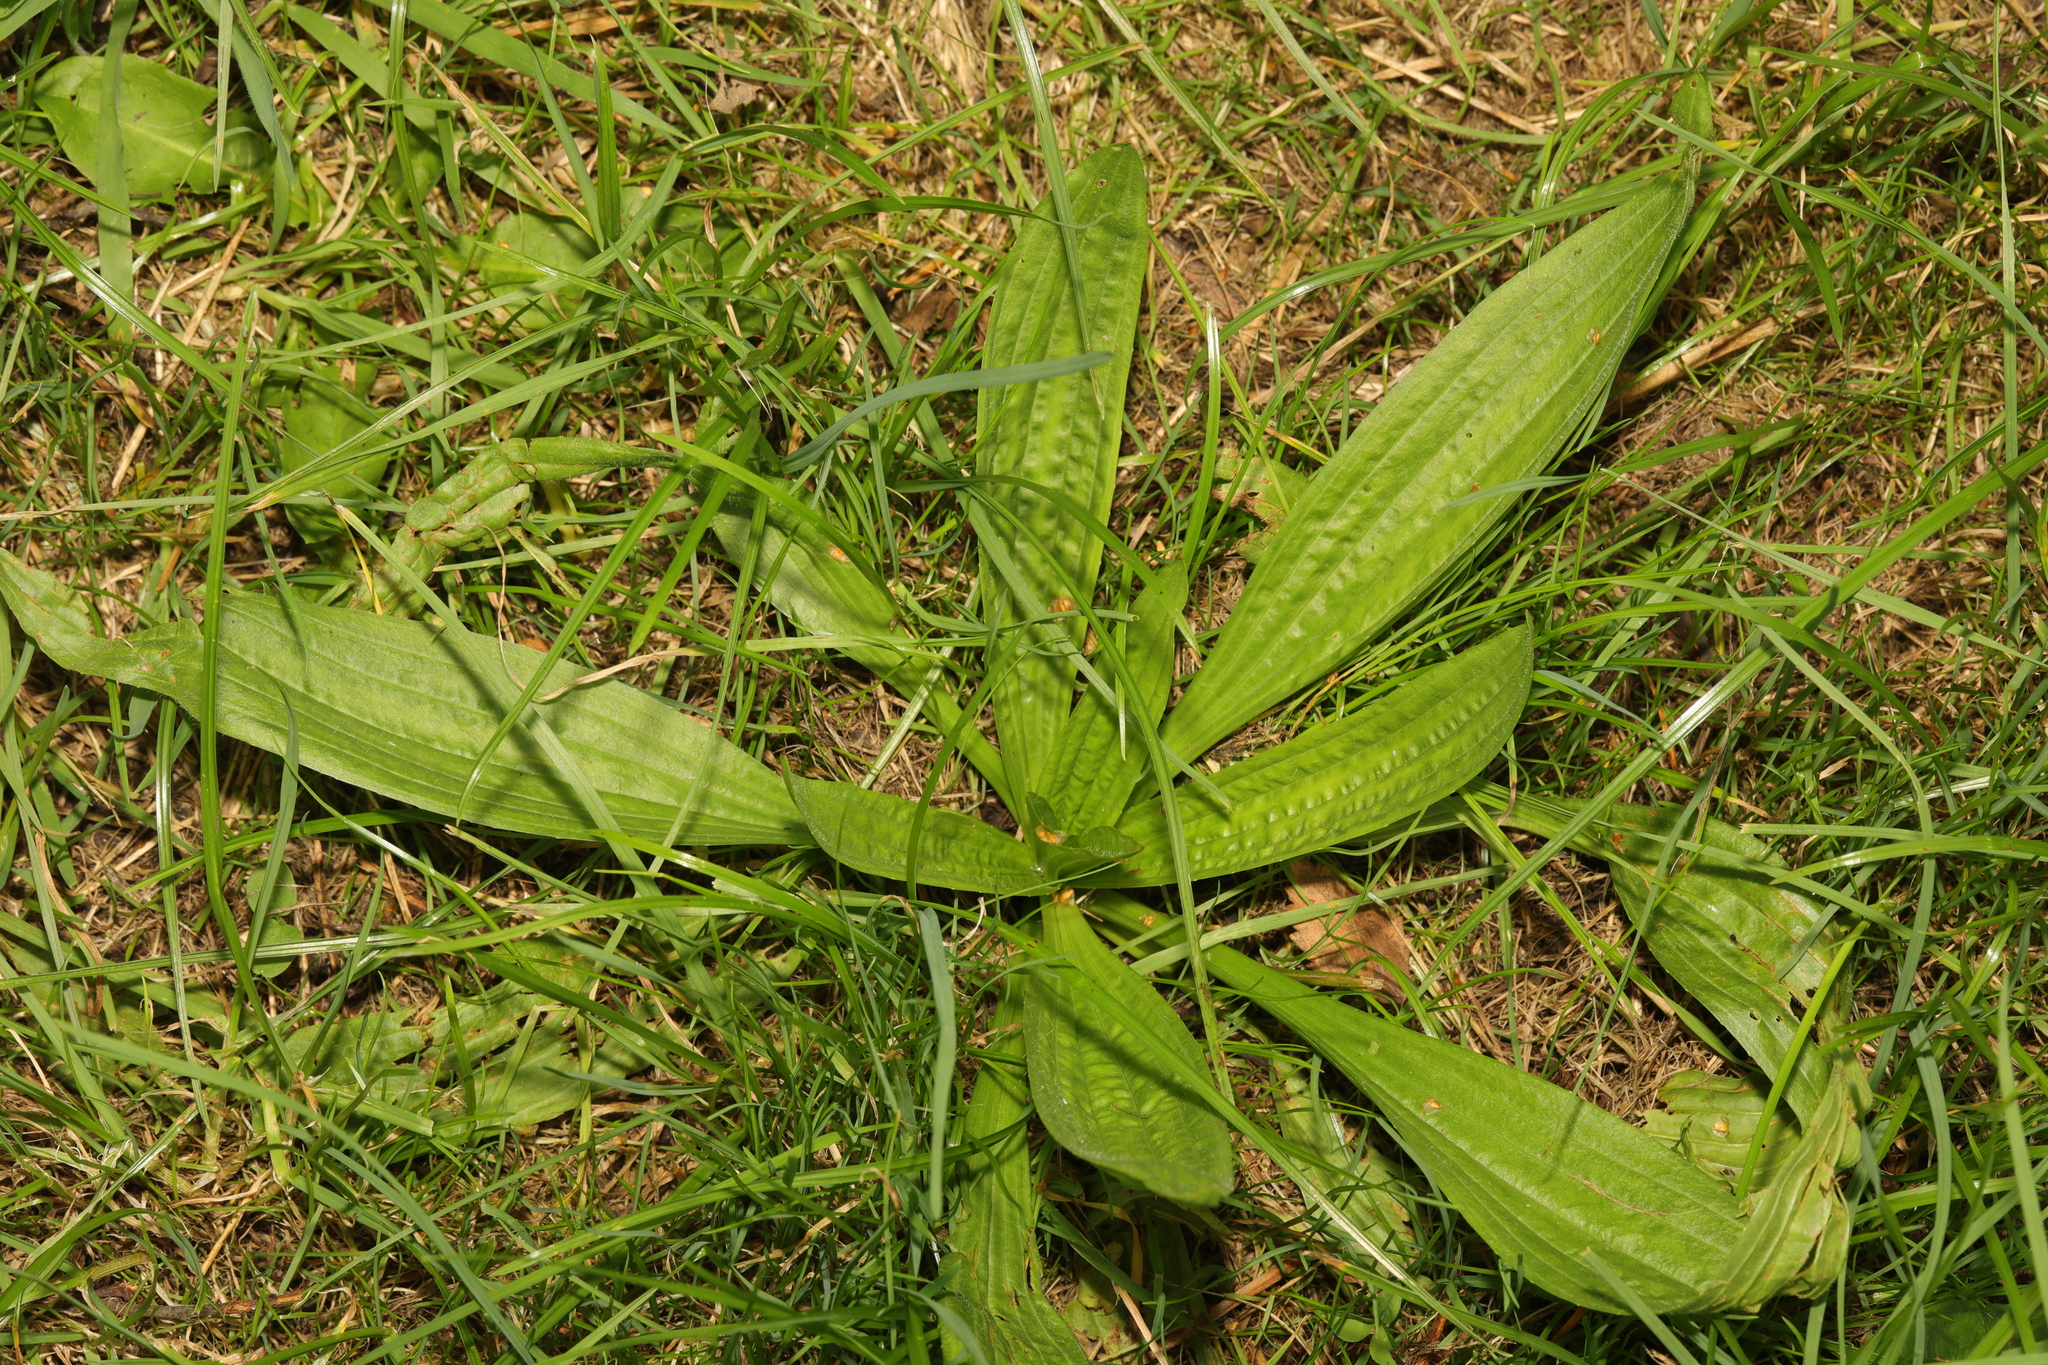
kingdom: Plantae
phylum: Tracheophyta
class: Magnoliopsida
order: Lamiales
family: Plantaginaceae
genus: Plantago
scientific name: Plantago lanceolata
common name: Ribwort plantain
